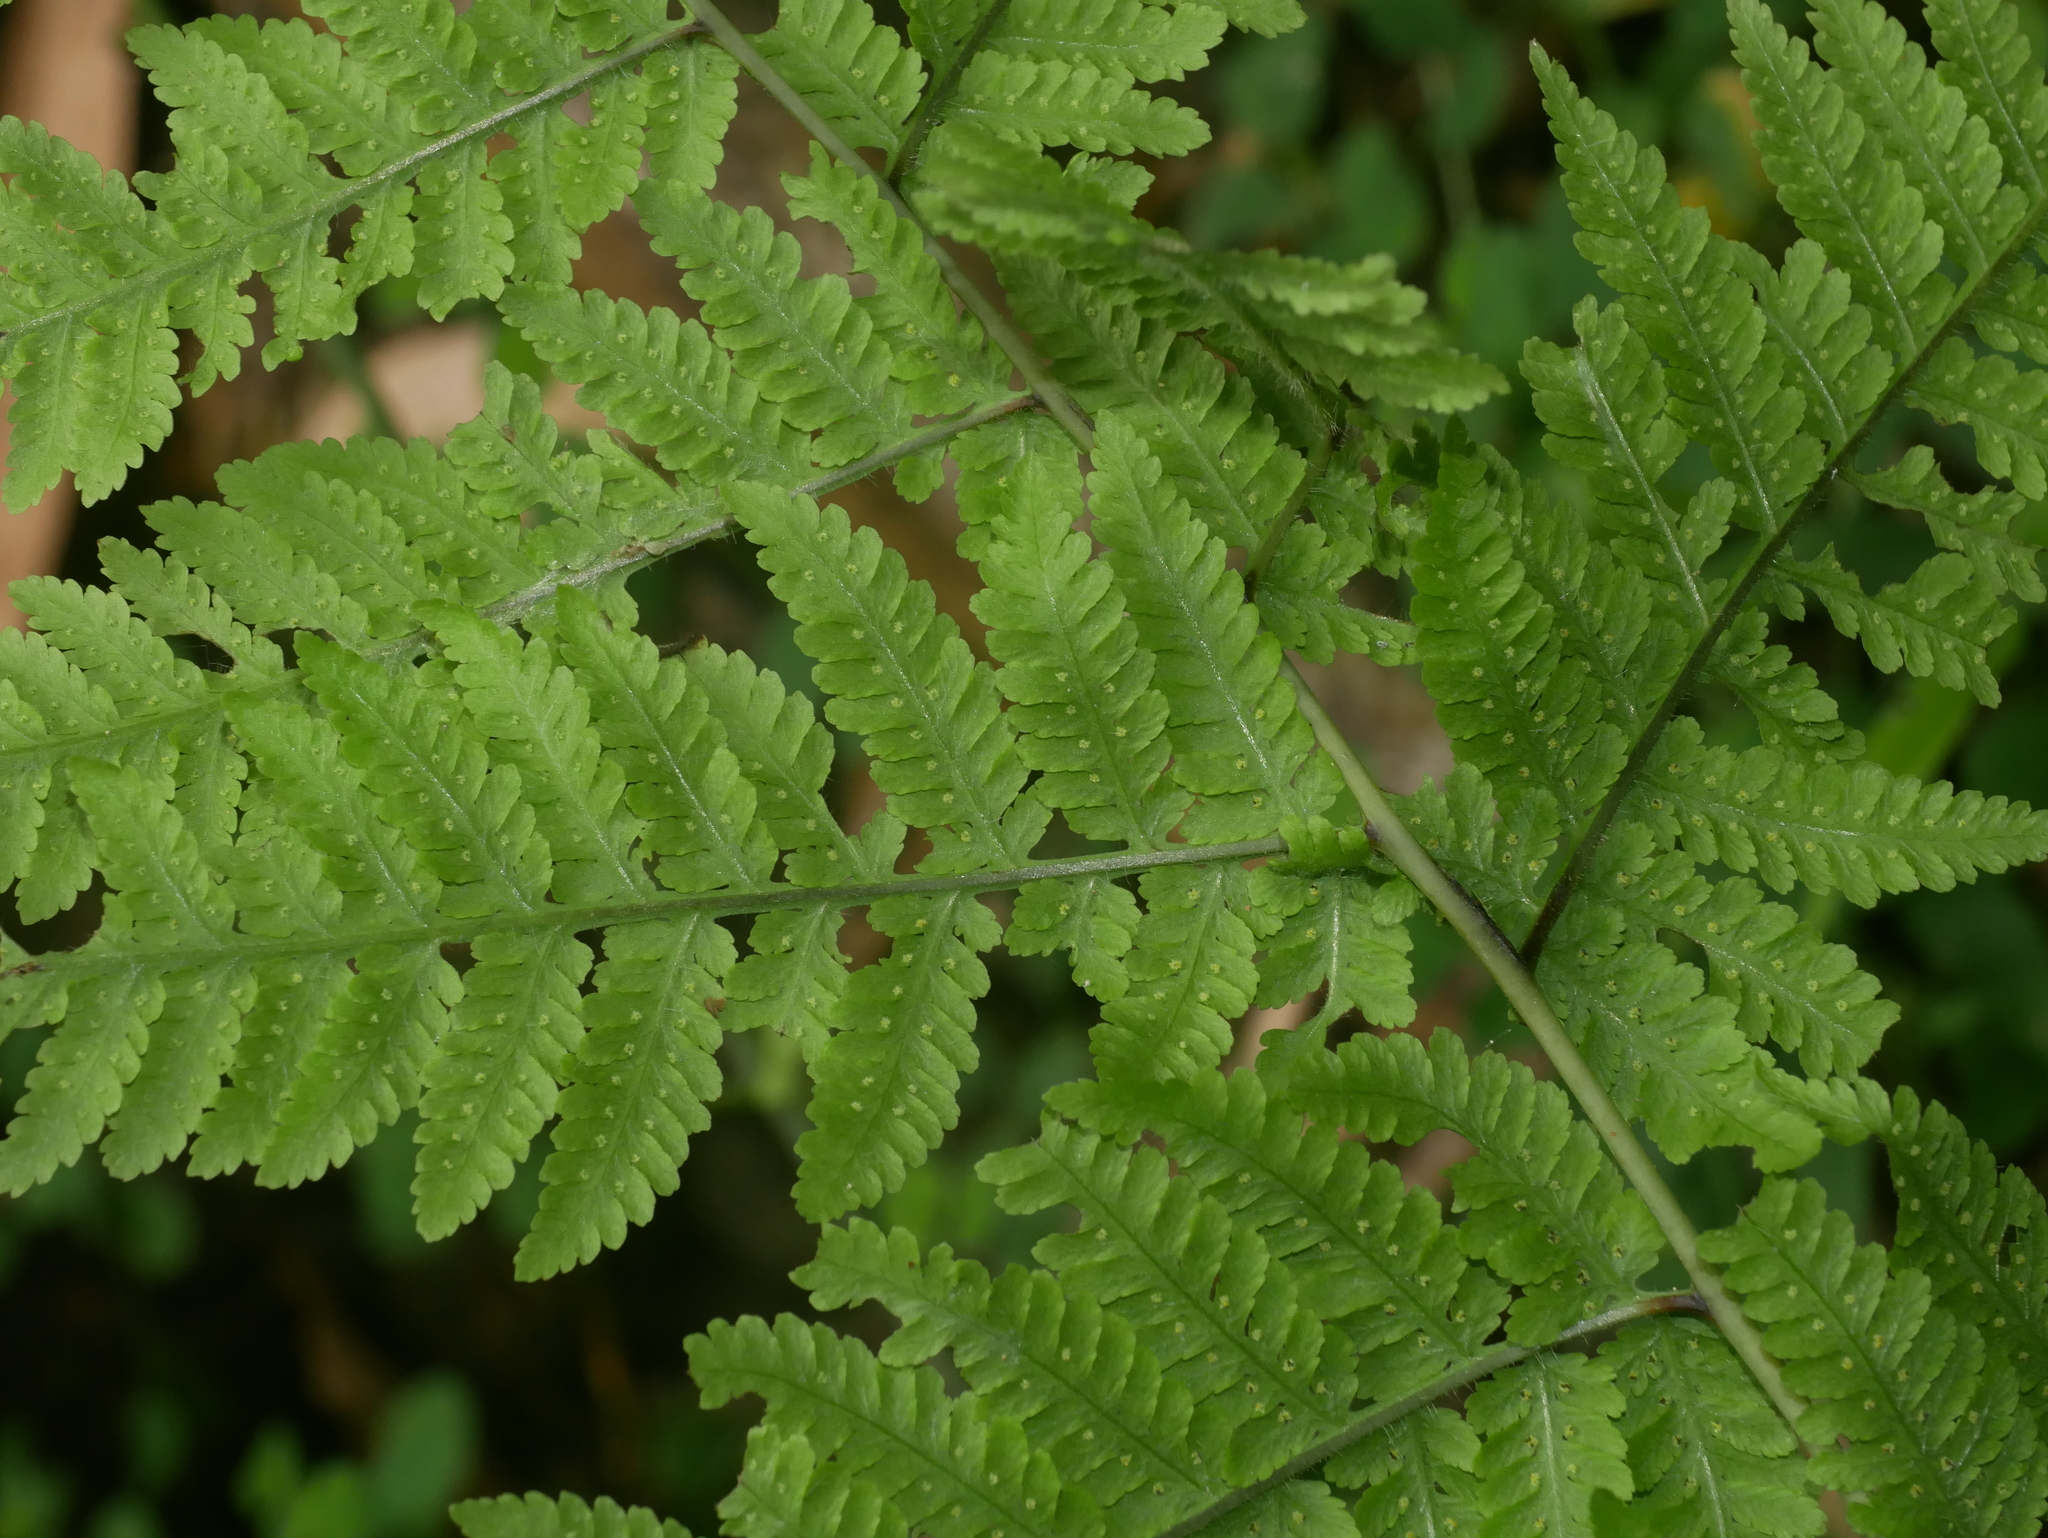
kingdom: Plantae
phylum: Tracheophyta
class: Polypodiopsida
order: Polypodiales
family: Thelypteridaceae
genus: Macrothelypteris
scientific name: Macrothelypteris torresiana
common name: Swordfern
